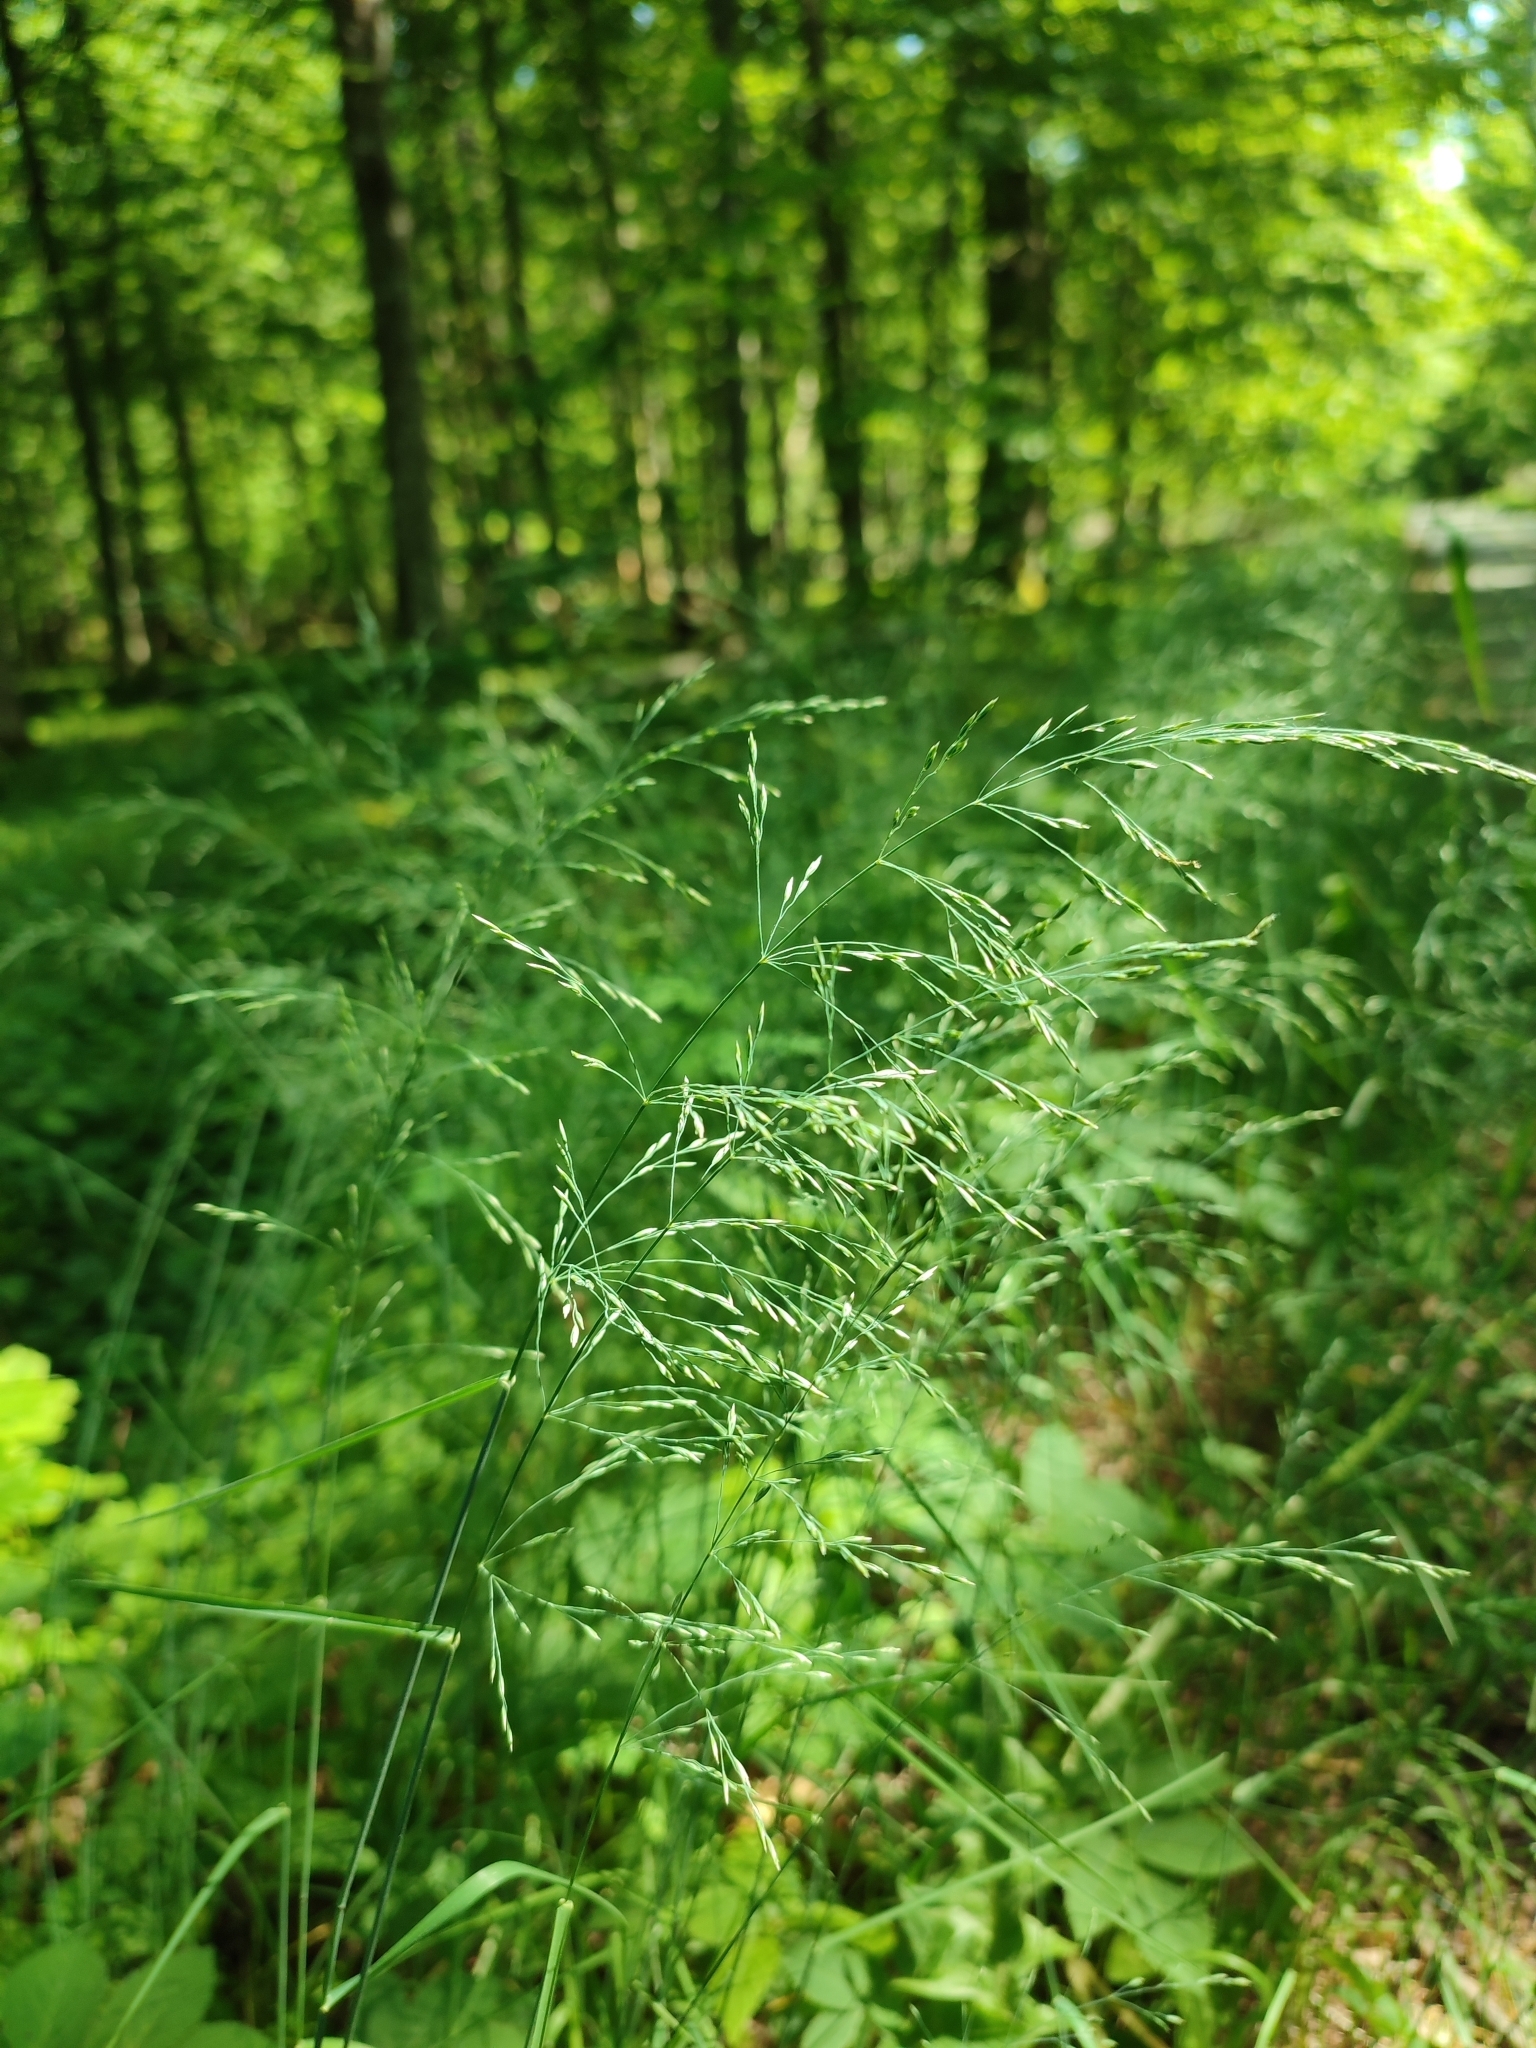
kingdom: Plantae
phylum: Tracheophyta
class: Liliopsida
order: Poales
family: Poaceae
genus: Poa
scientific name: Poa nemoralis
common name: Wood bluegrass
